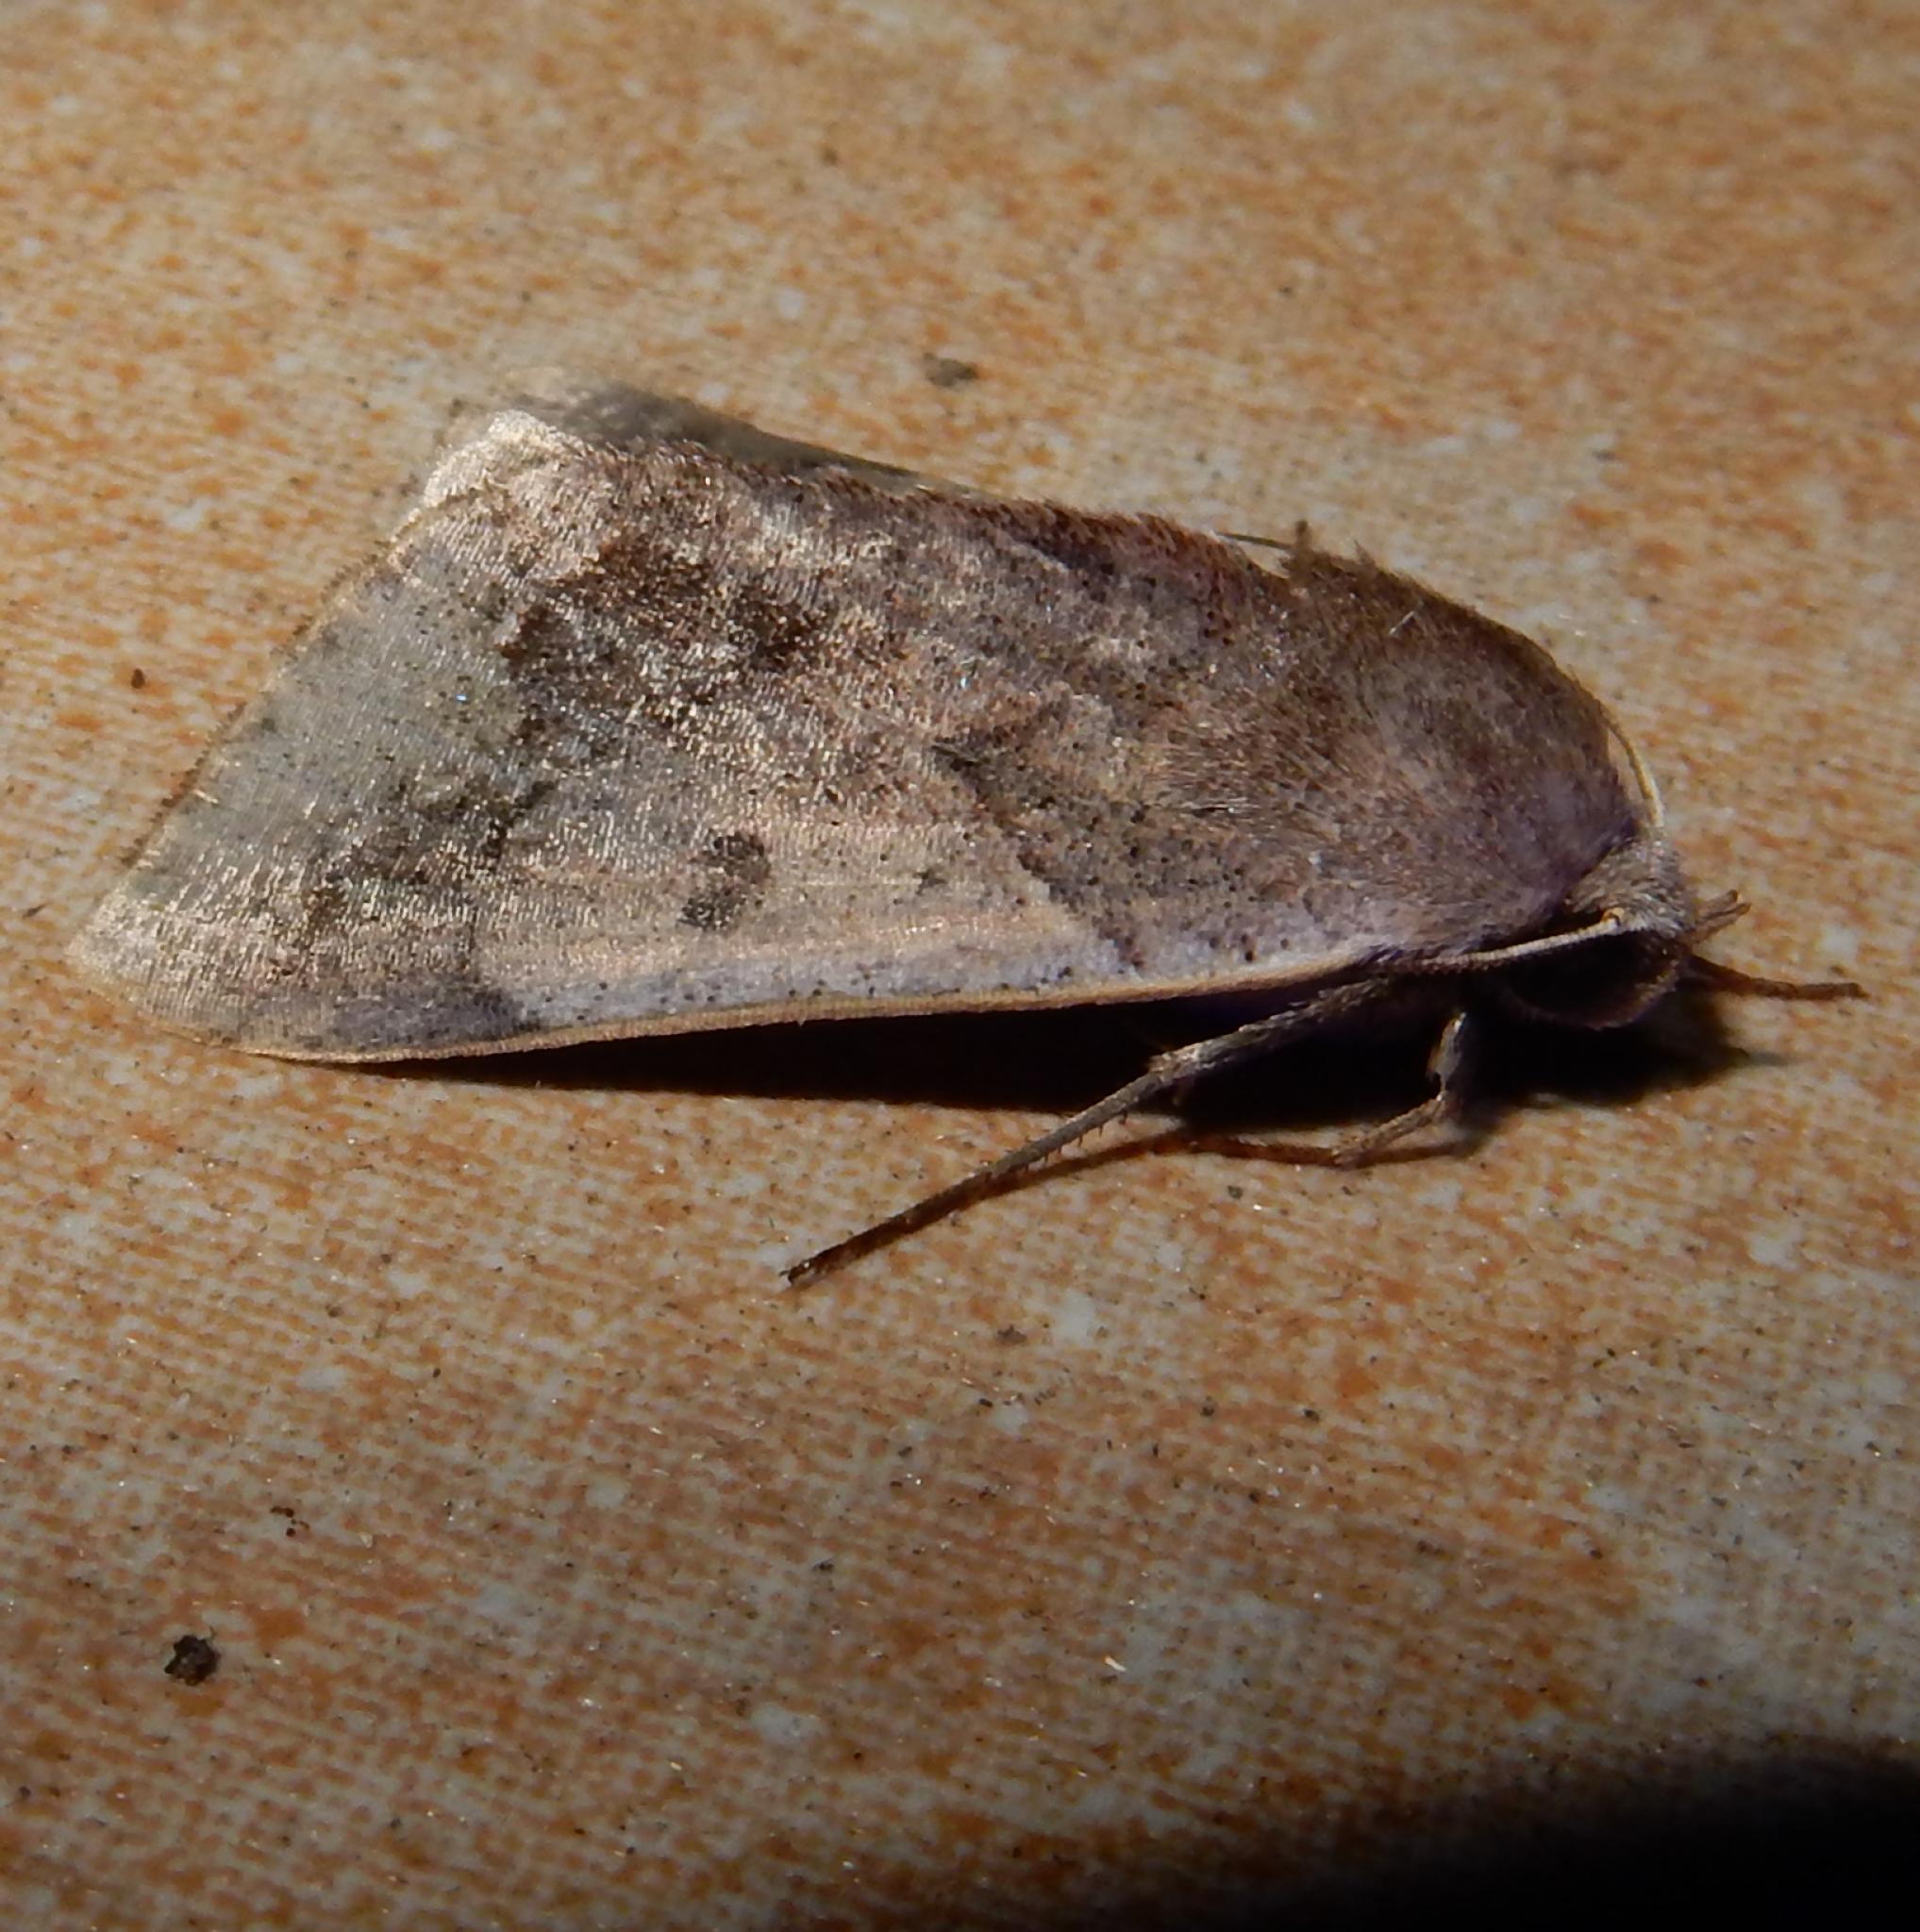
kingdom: Animalia
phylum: Arthropoda
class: Insecta
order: Lepidoptera
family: Erebidae
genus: Ophiusa
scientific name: Ophiusa selenaris
